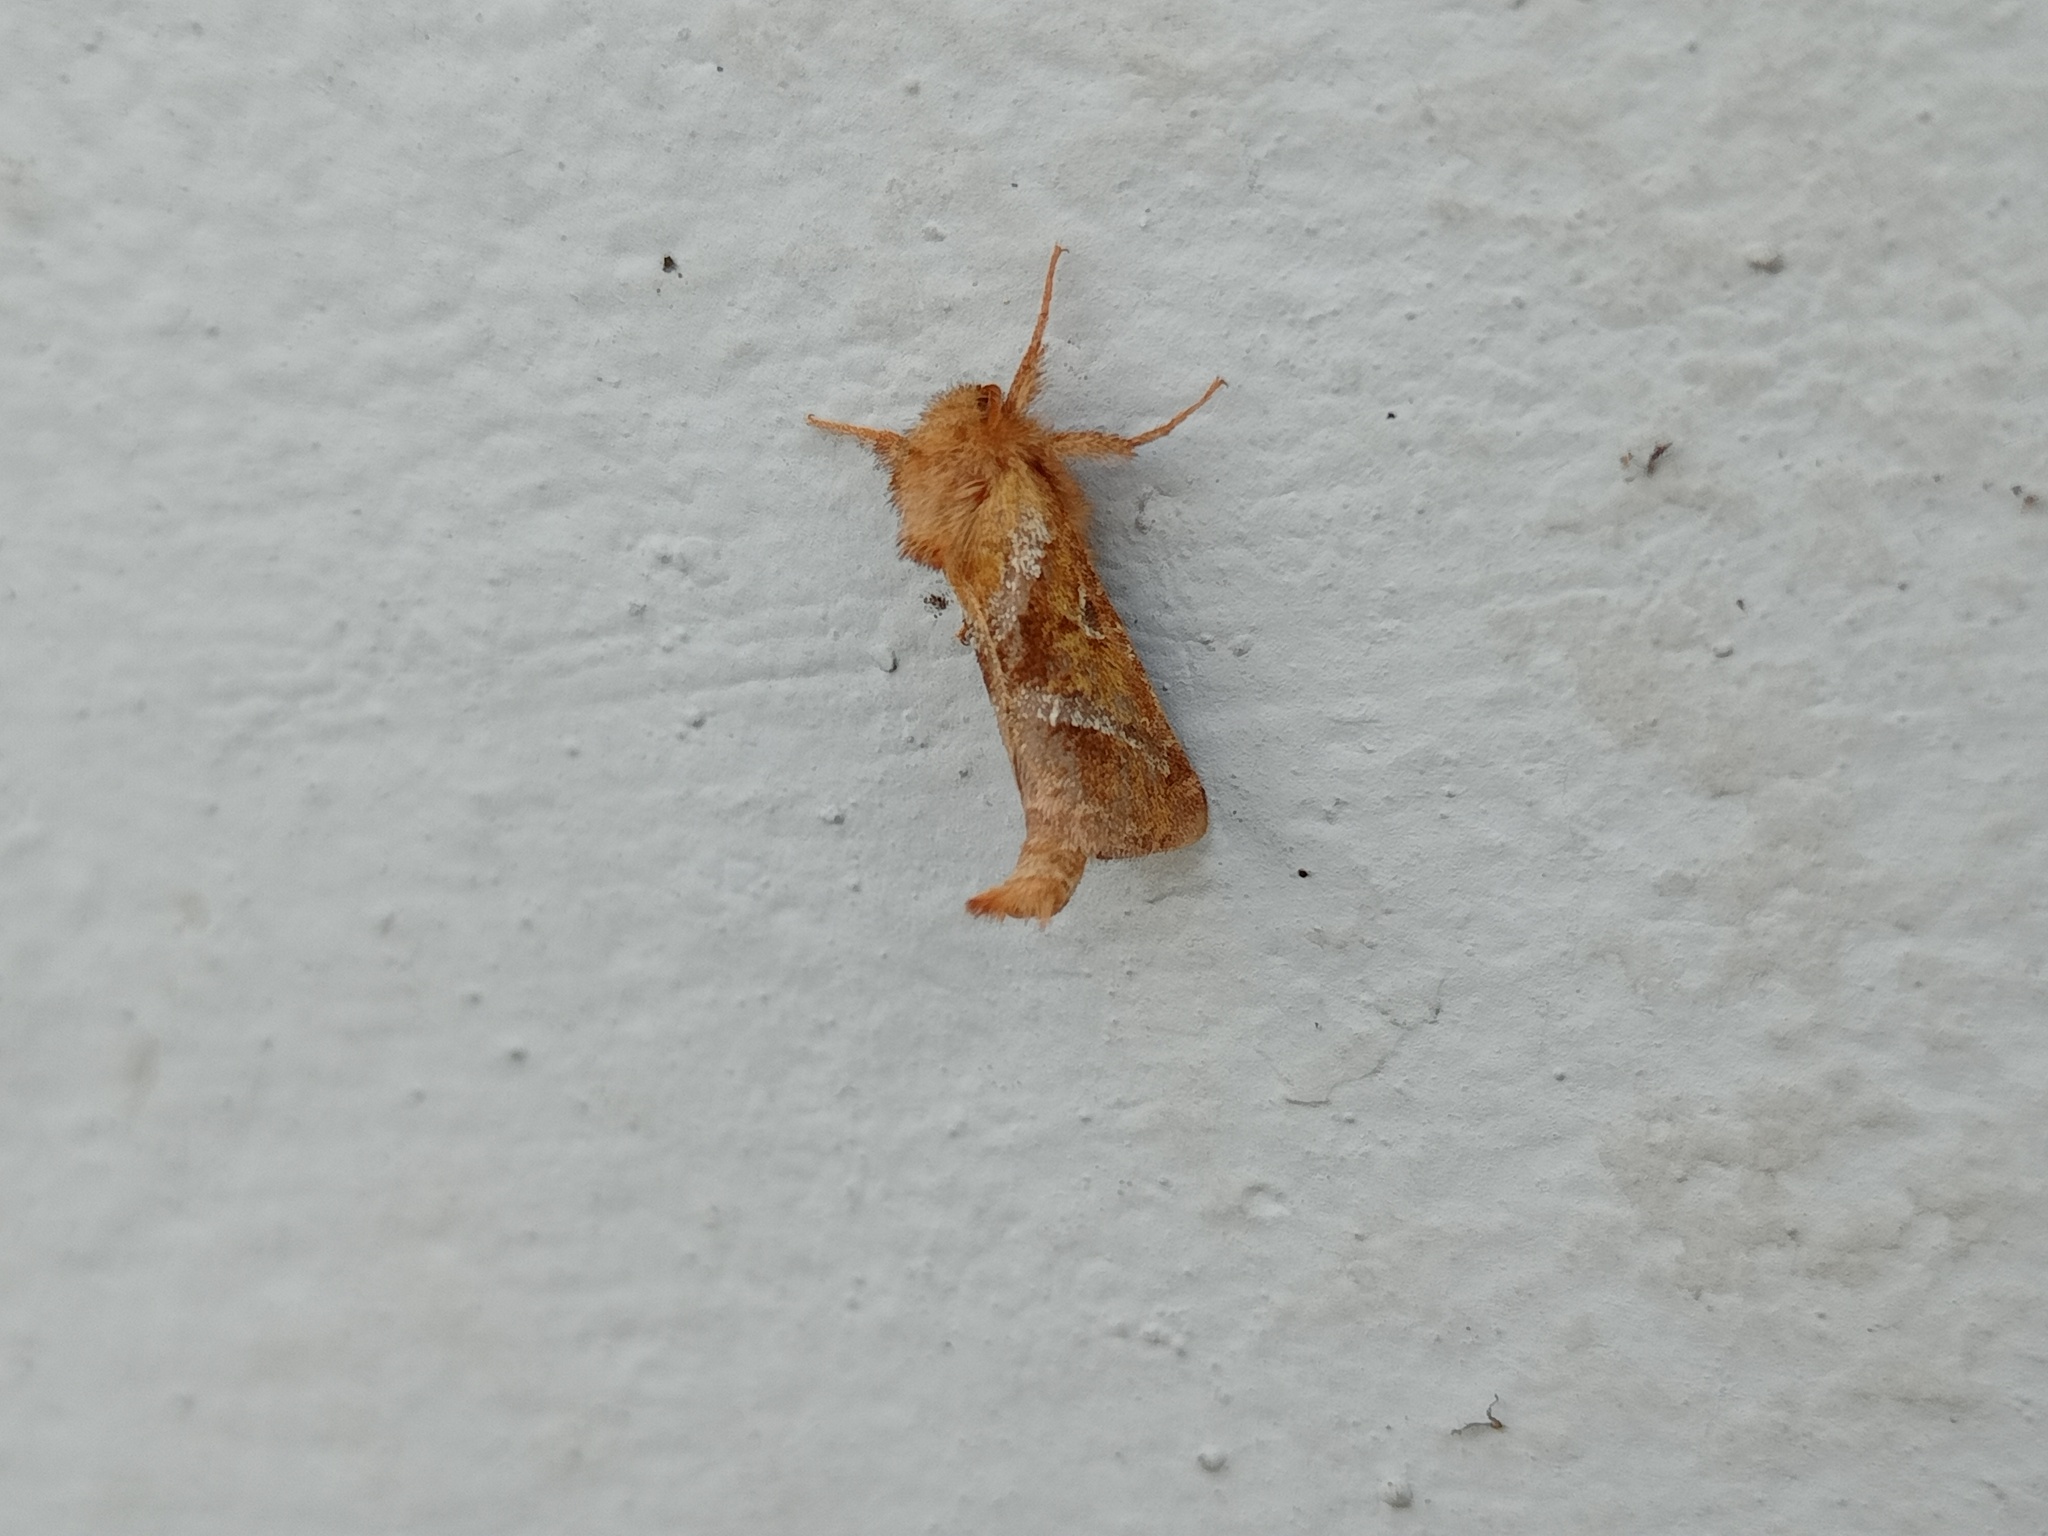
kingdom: Animalia
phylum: Arthropoda
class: Insecta
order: Lepidoptera
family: Hepialidae
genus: Triodia
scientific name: Triodia sylvina
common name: Orange swift
